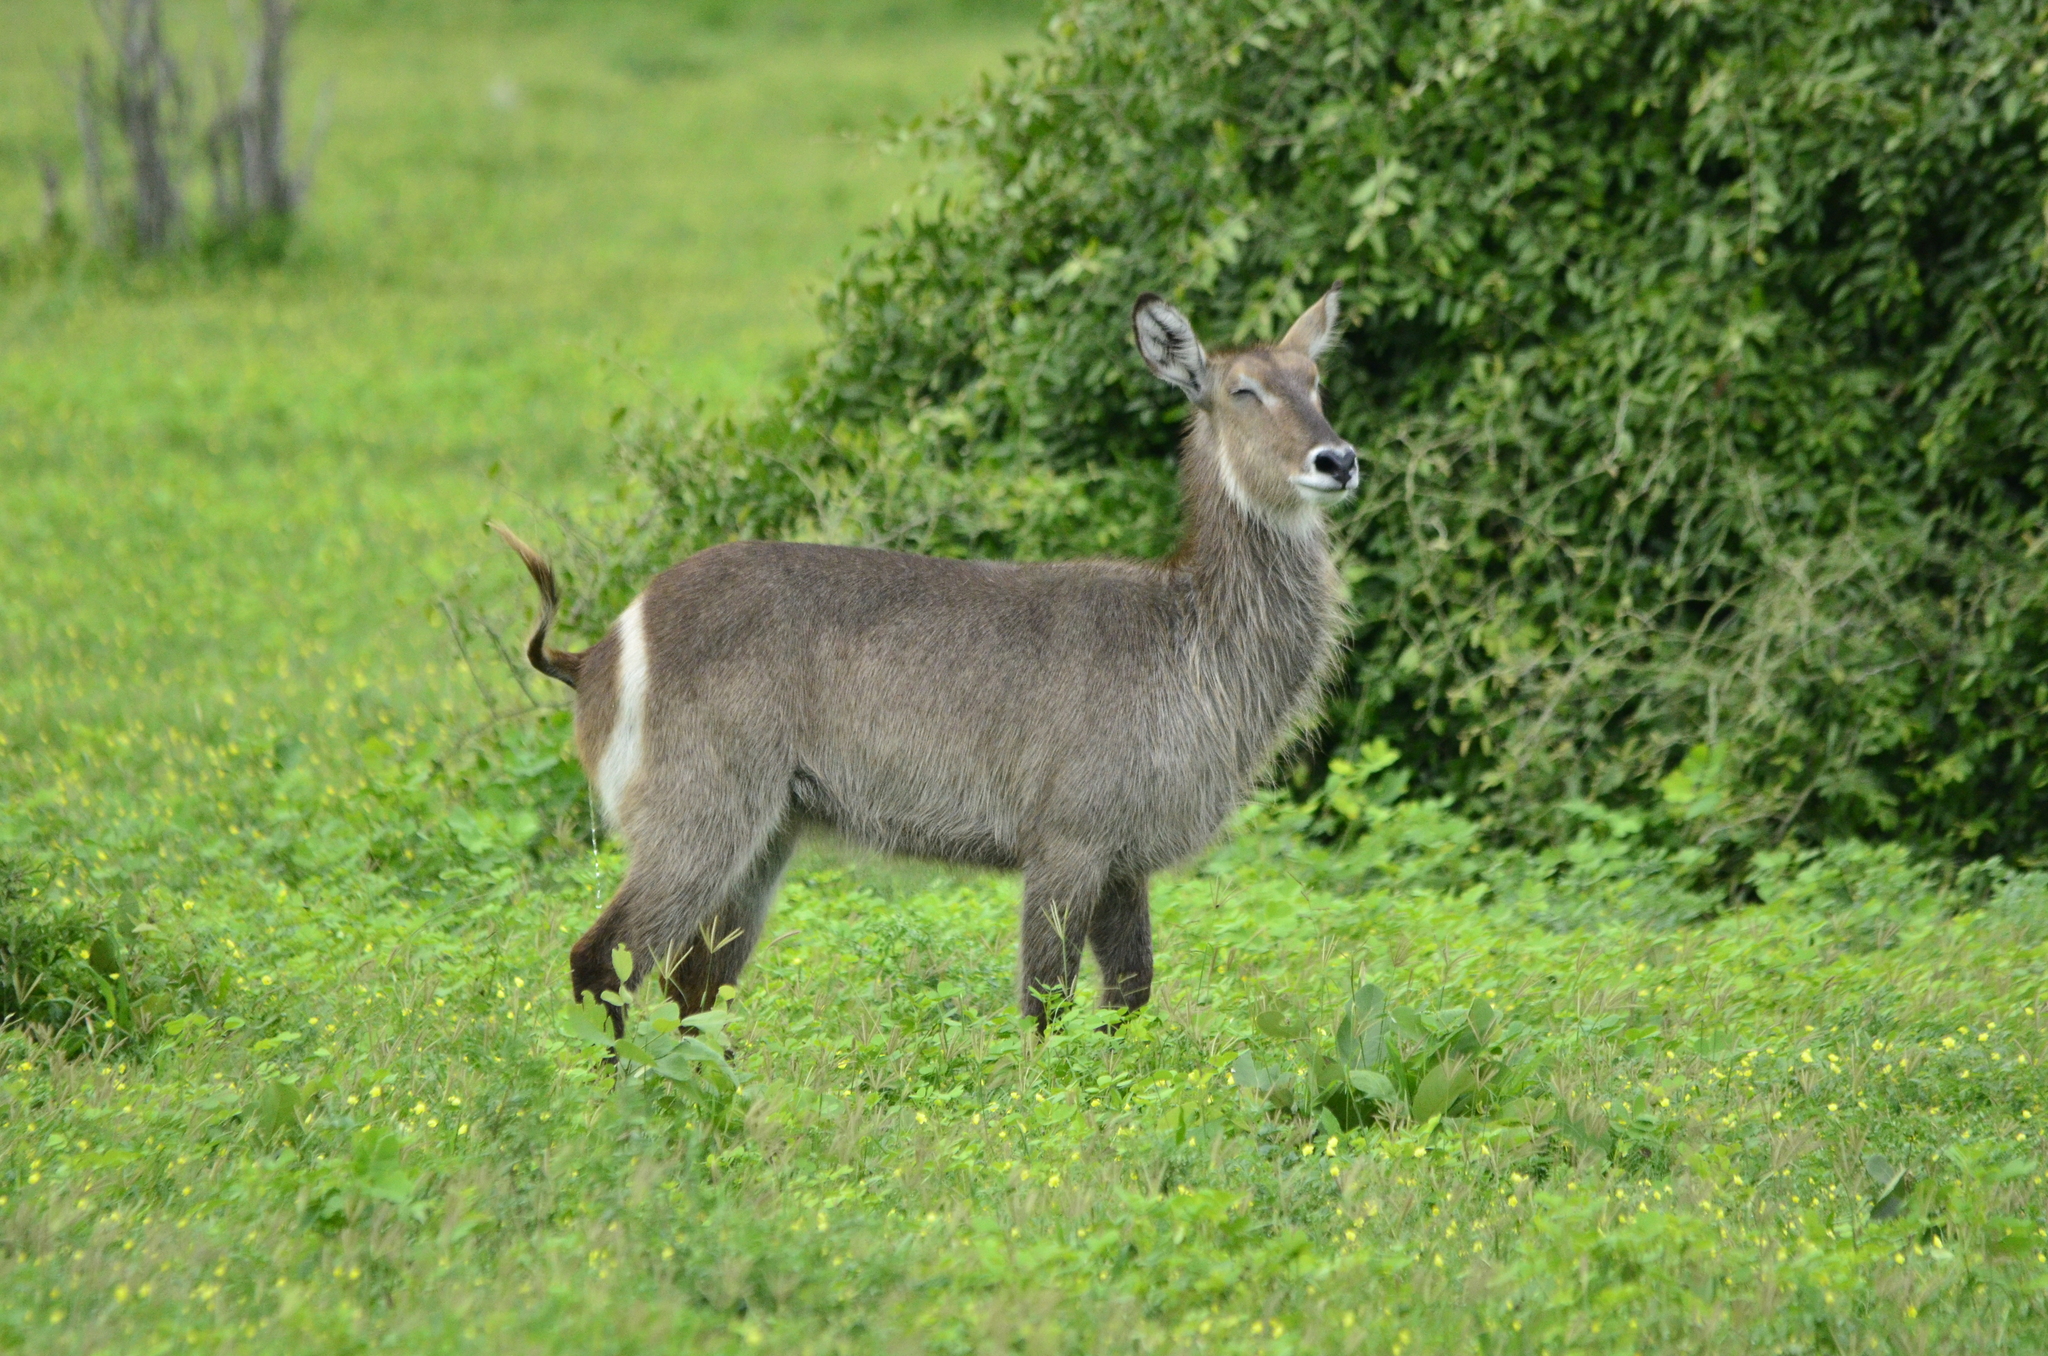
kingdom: Animalia
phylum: Chordata
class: Mammalia
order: Artiodactyla
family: Bovidae
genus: Kobus
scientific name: Kobus ellipsiprymnus
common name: Waterbuck
